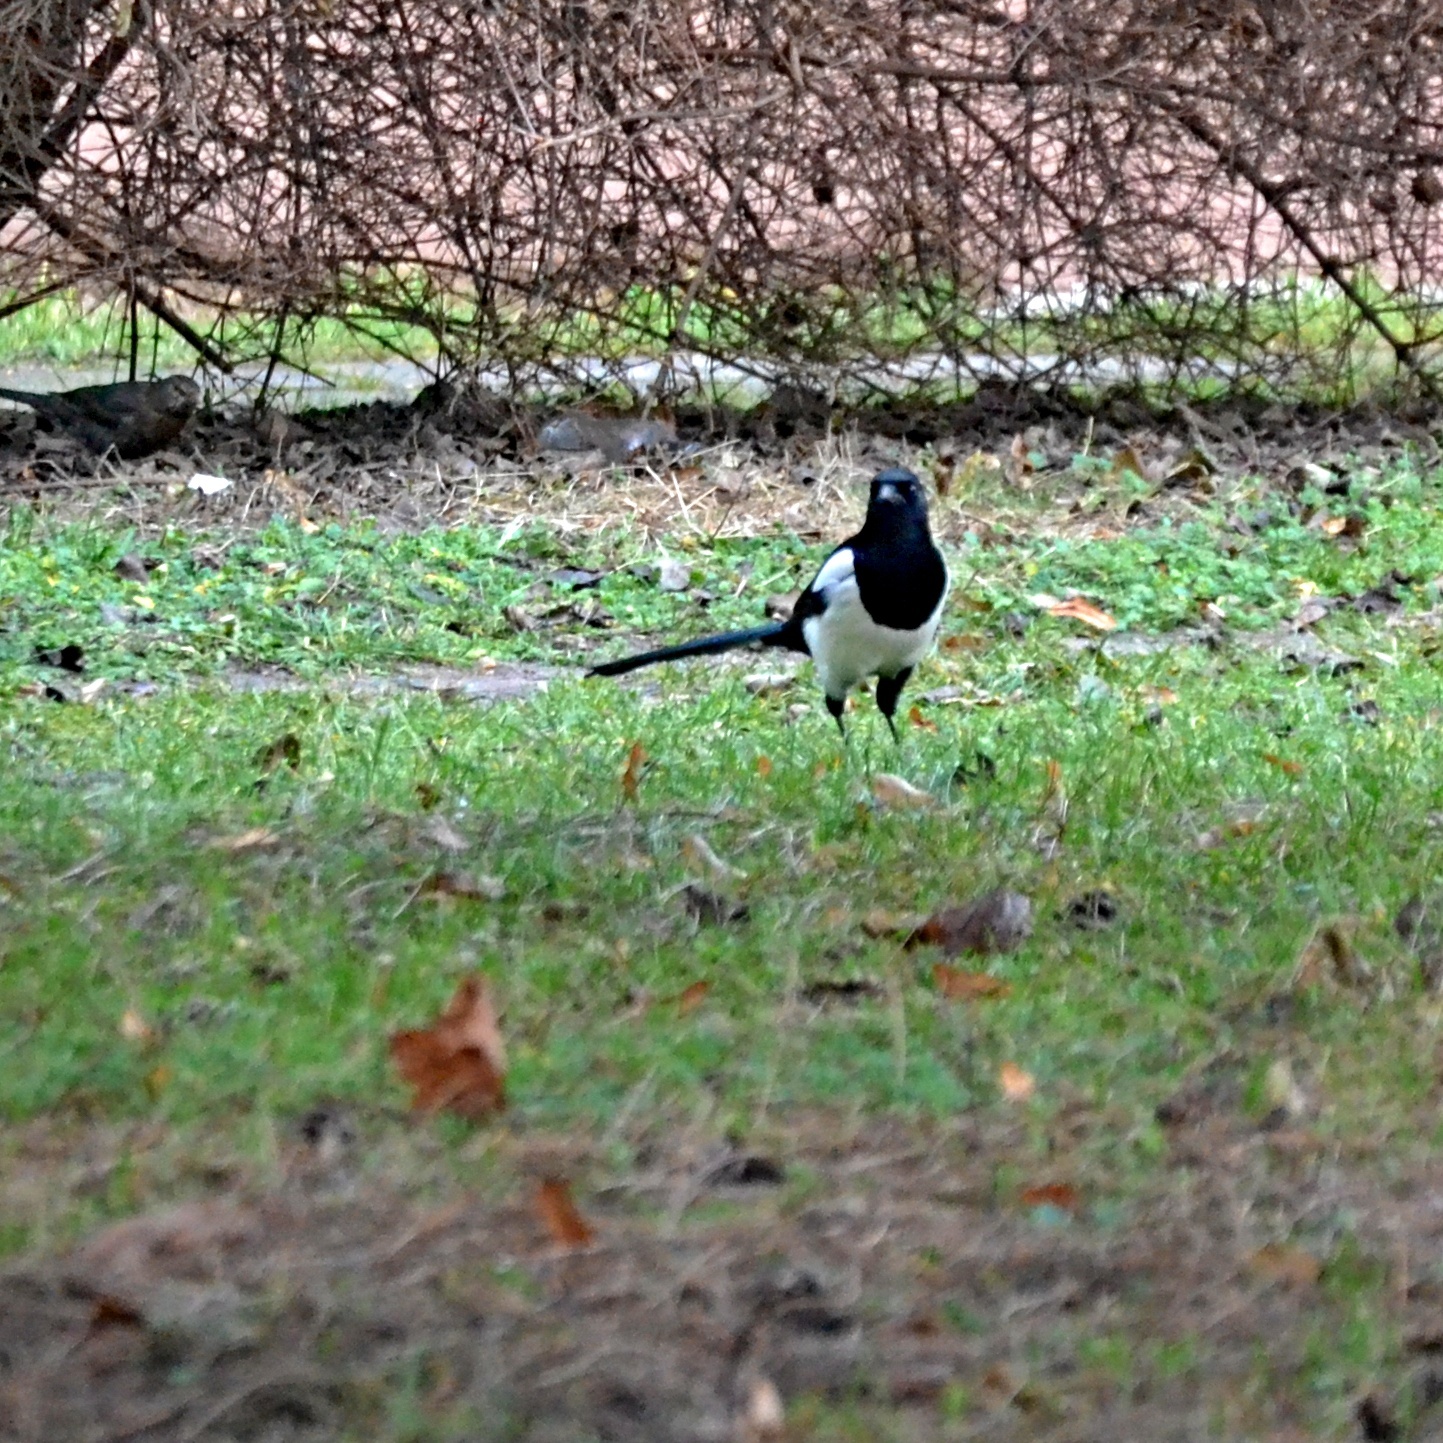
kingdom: Animalia
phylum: Chordata
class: Aves
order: Passeriformes
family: Corvidae
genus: Pica
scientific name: Pica pica
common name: Eurasian magpie
